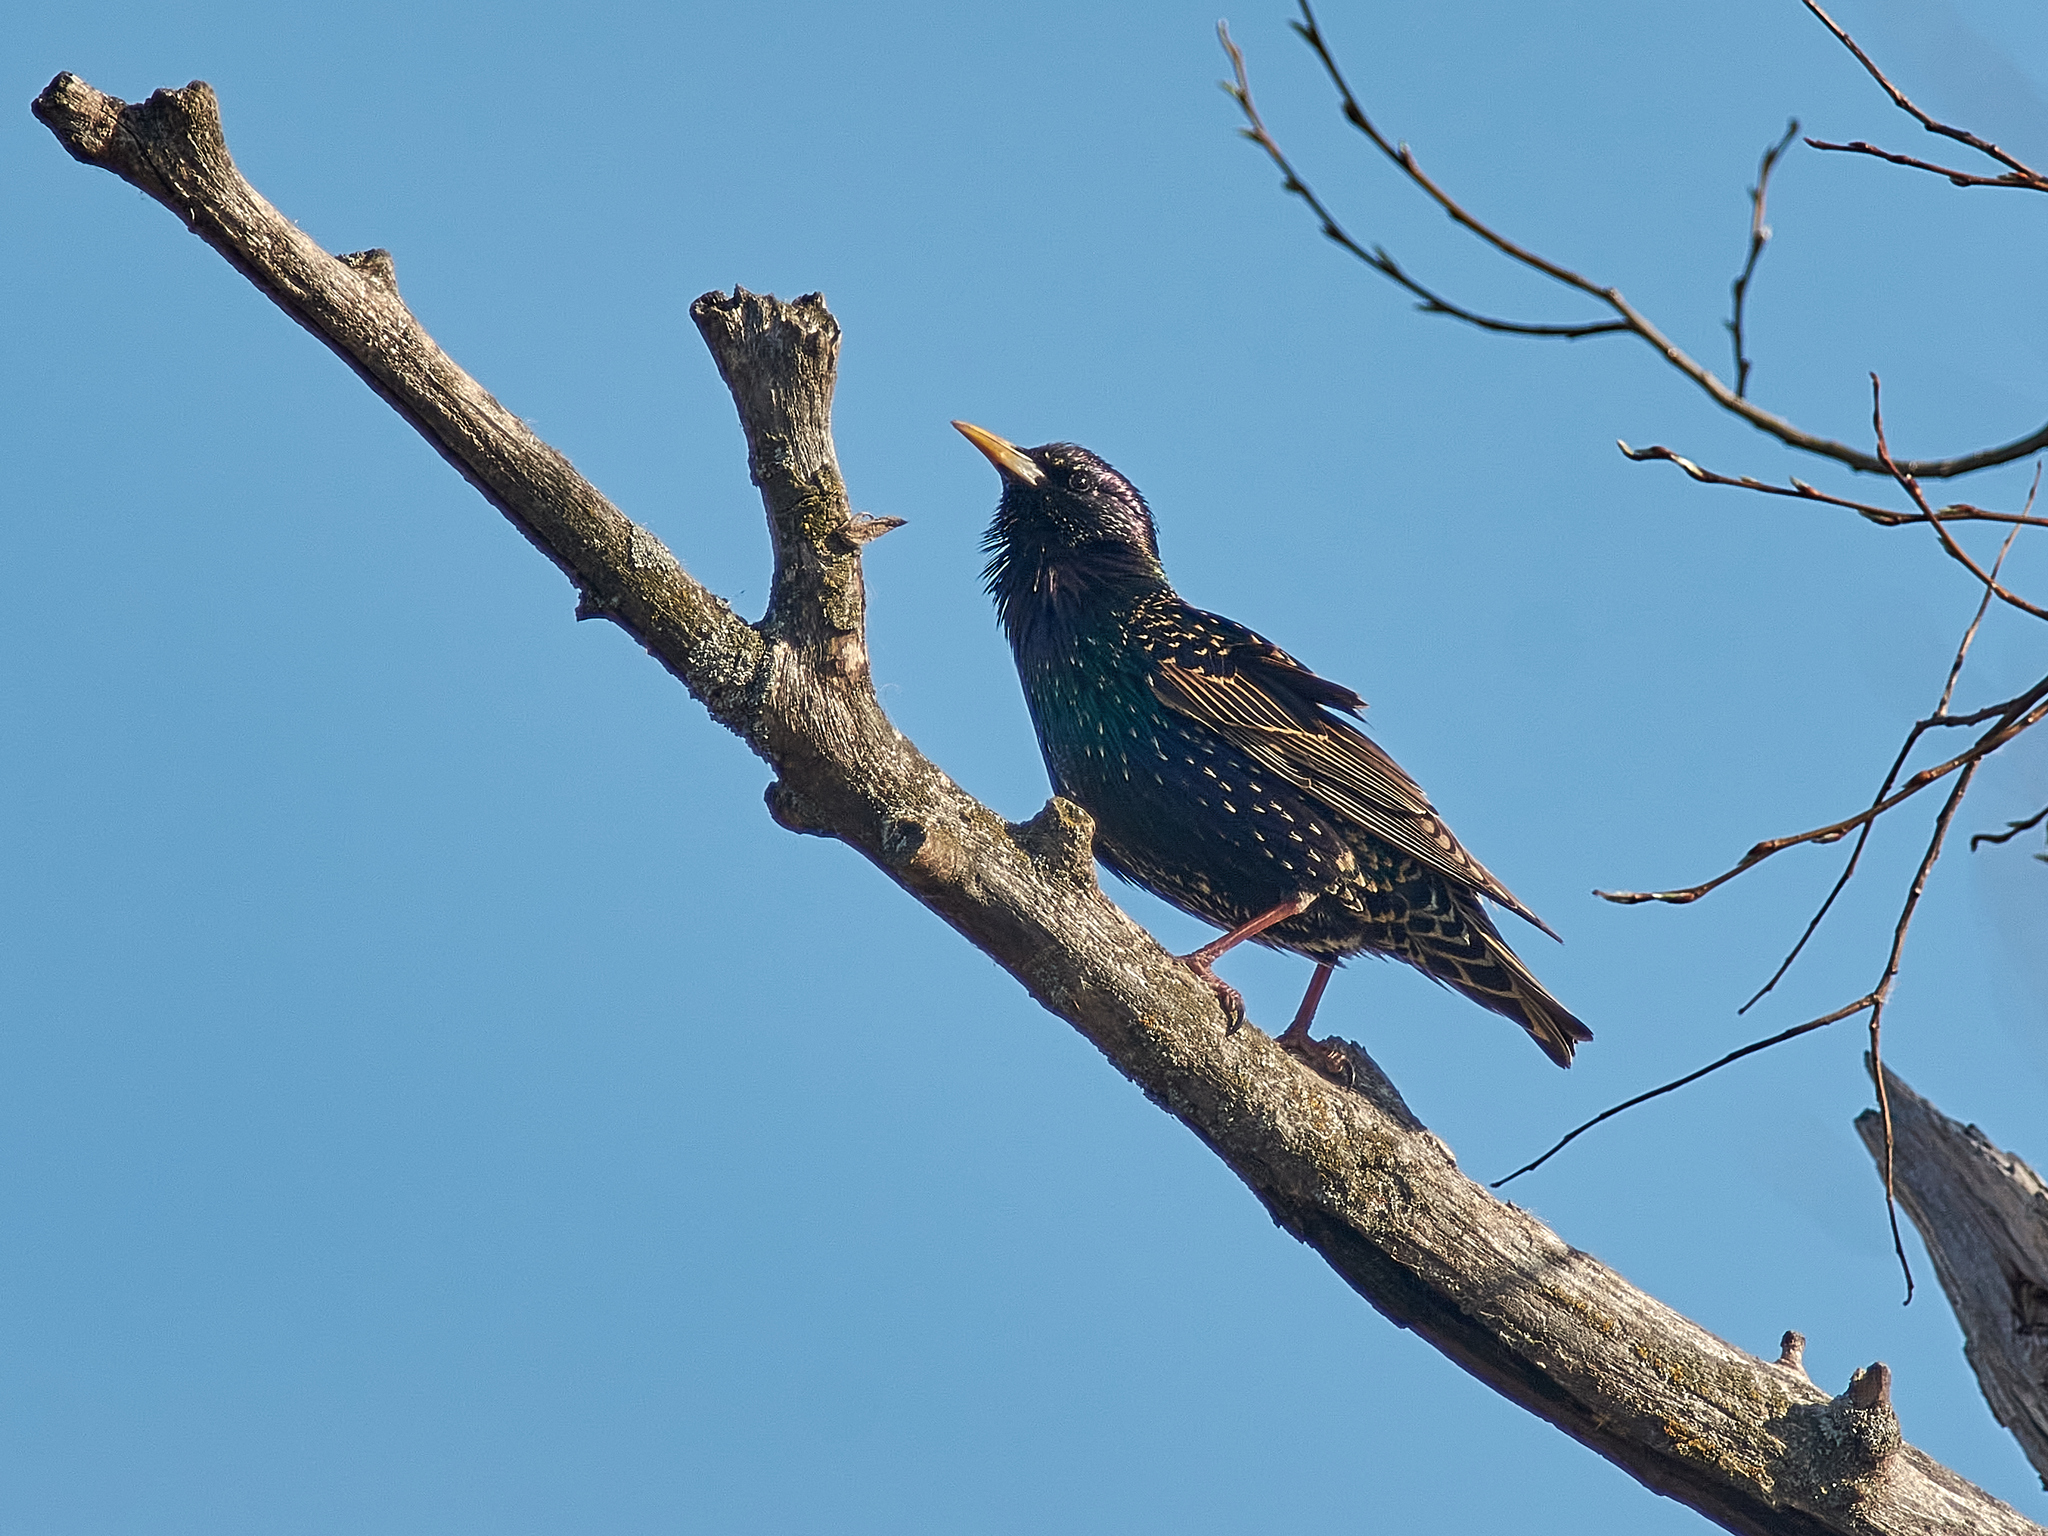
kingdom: Animalia
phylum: Chordata
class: Aves
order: Passeriformes
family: Sturnidae
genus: Sturnus
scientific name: Sturnus vulgaris
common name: Common starling
